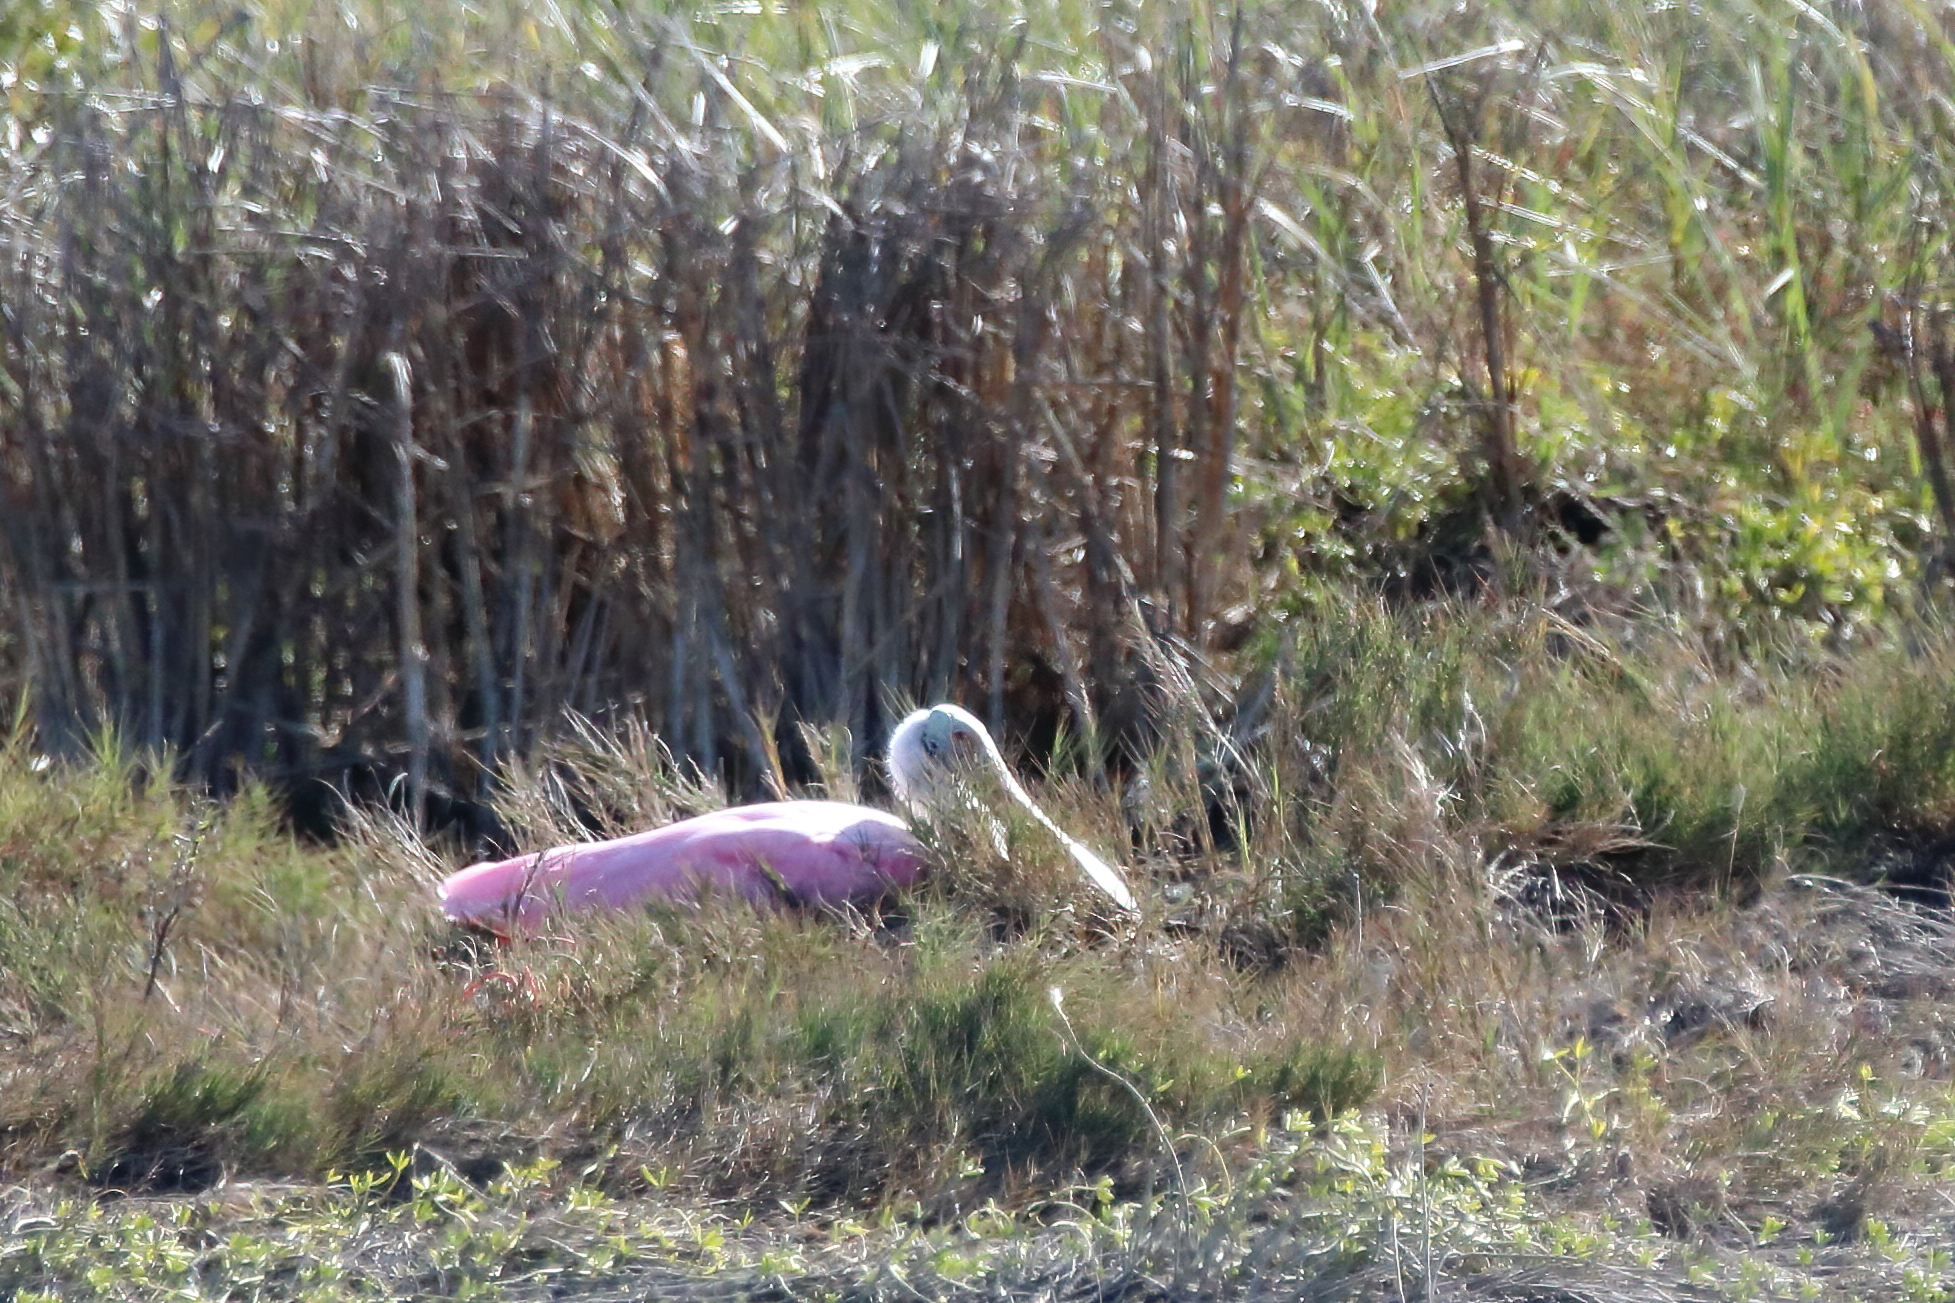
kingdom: Animalia
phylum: Chordata
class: Aves
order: Pelecaniformes
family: Threskiornithidae
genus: Platalea
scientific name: Platalea ajaja
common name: Roseate spoonbill
